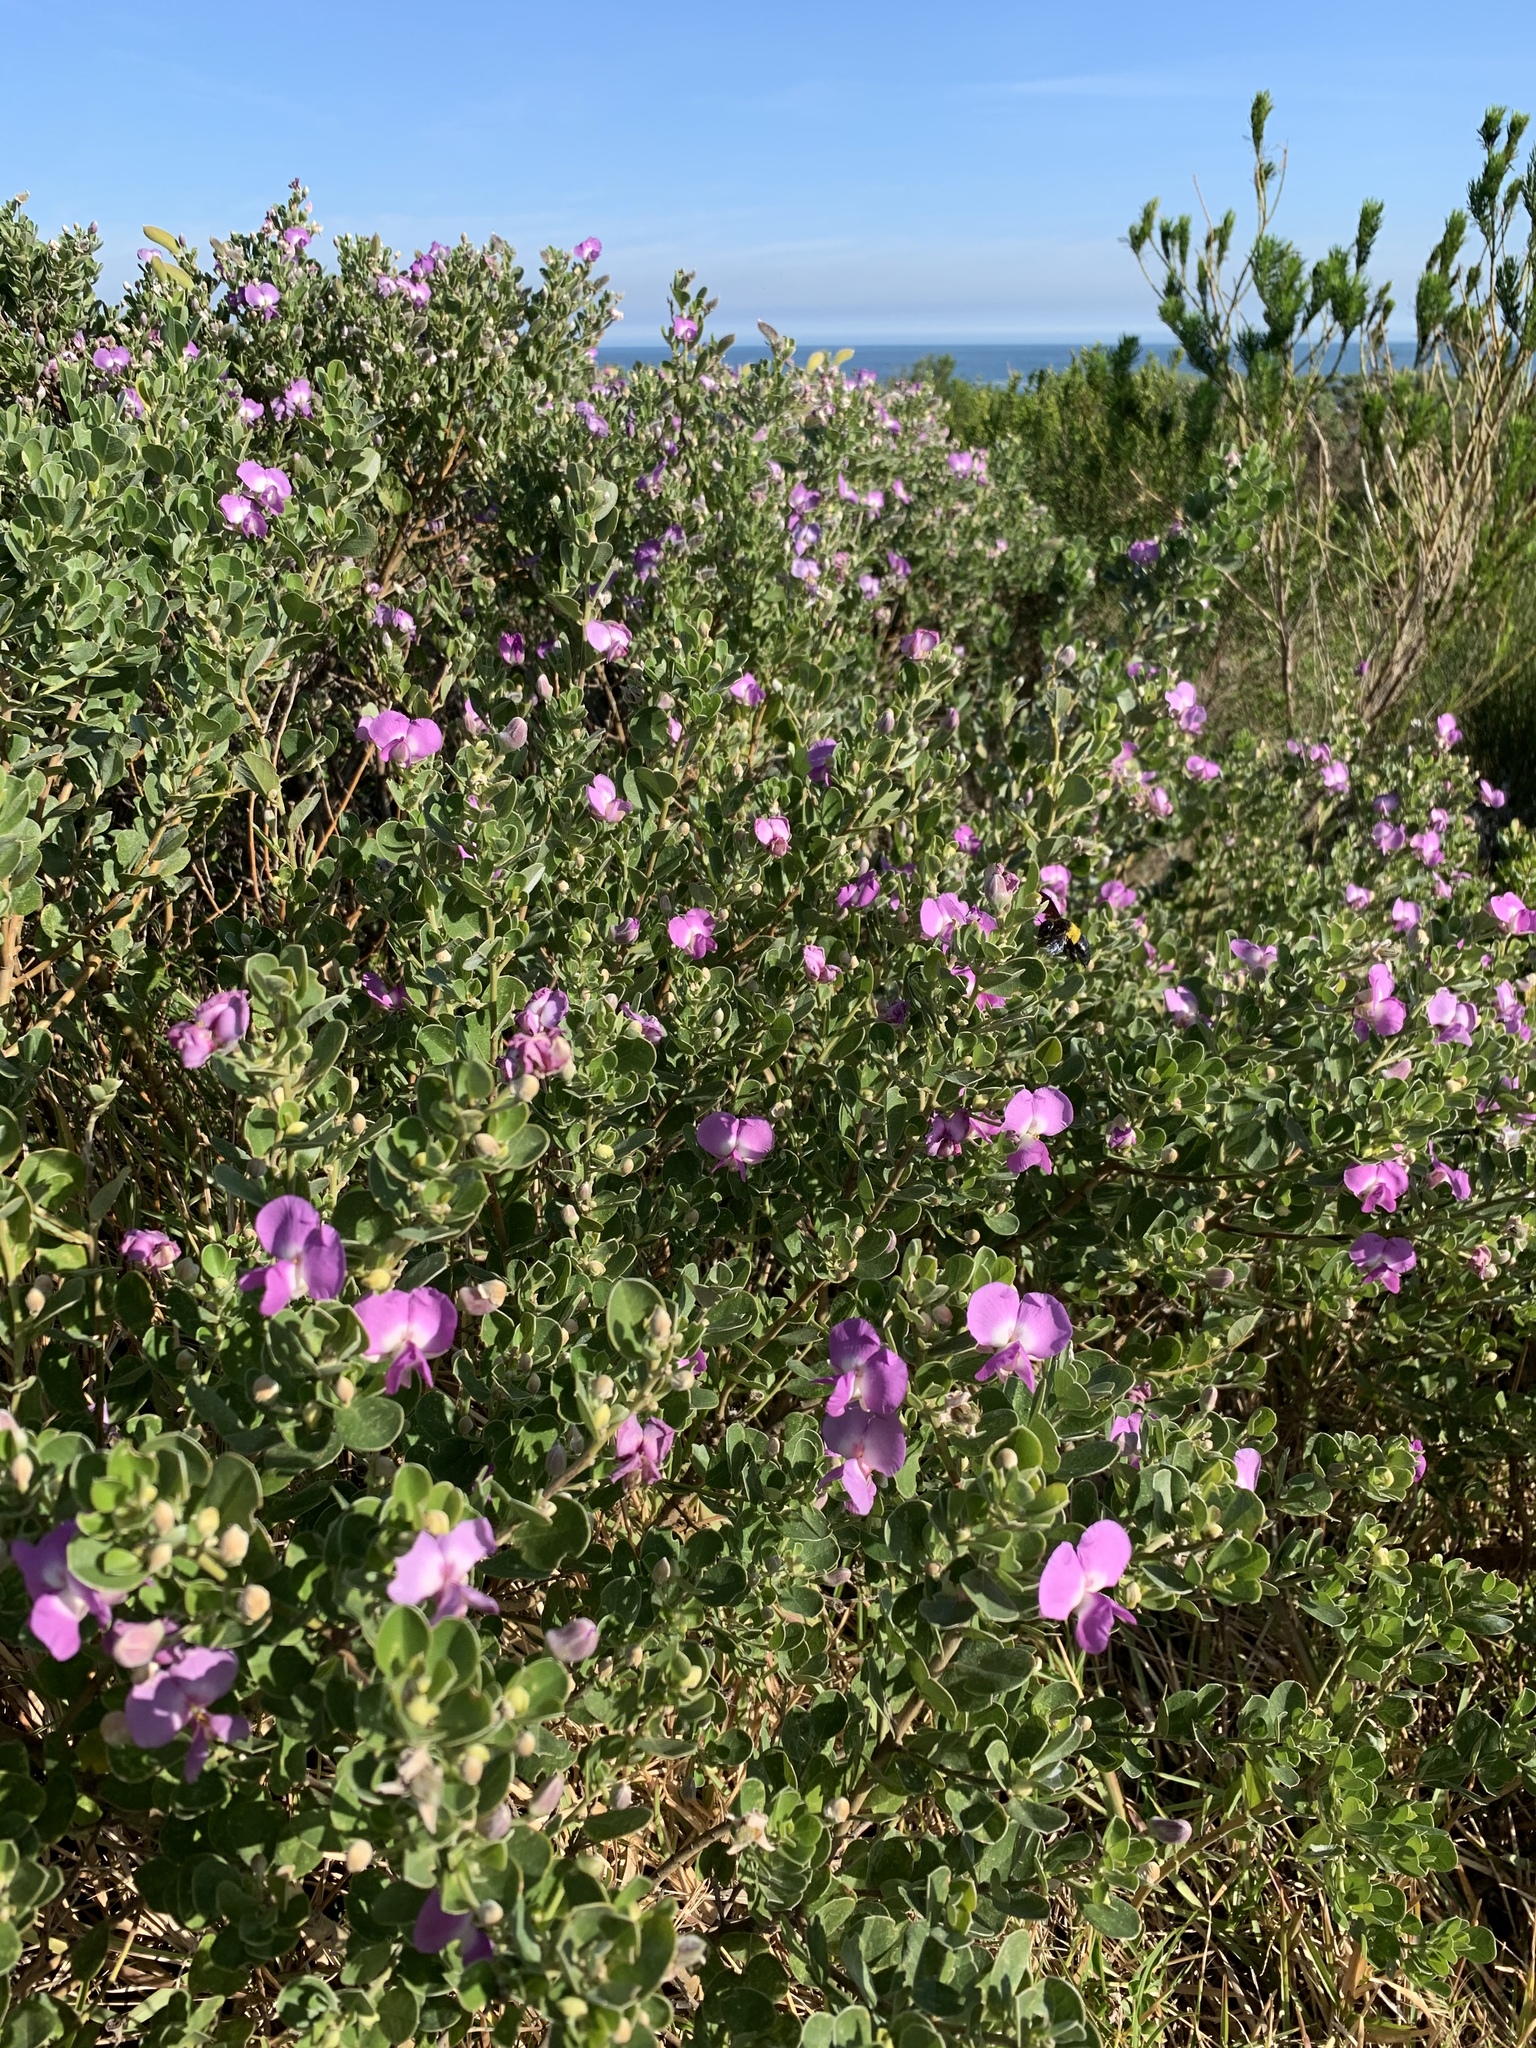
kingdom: Plantae
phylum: Tracheophyta
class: Magnoliopsida
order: Fabales
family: Fabaceae
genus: Podalyria
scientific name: Podalyria calyptrata
